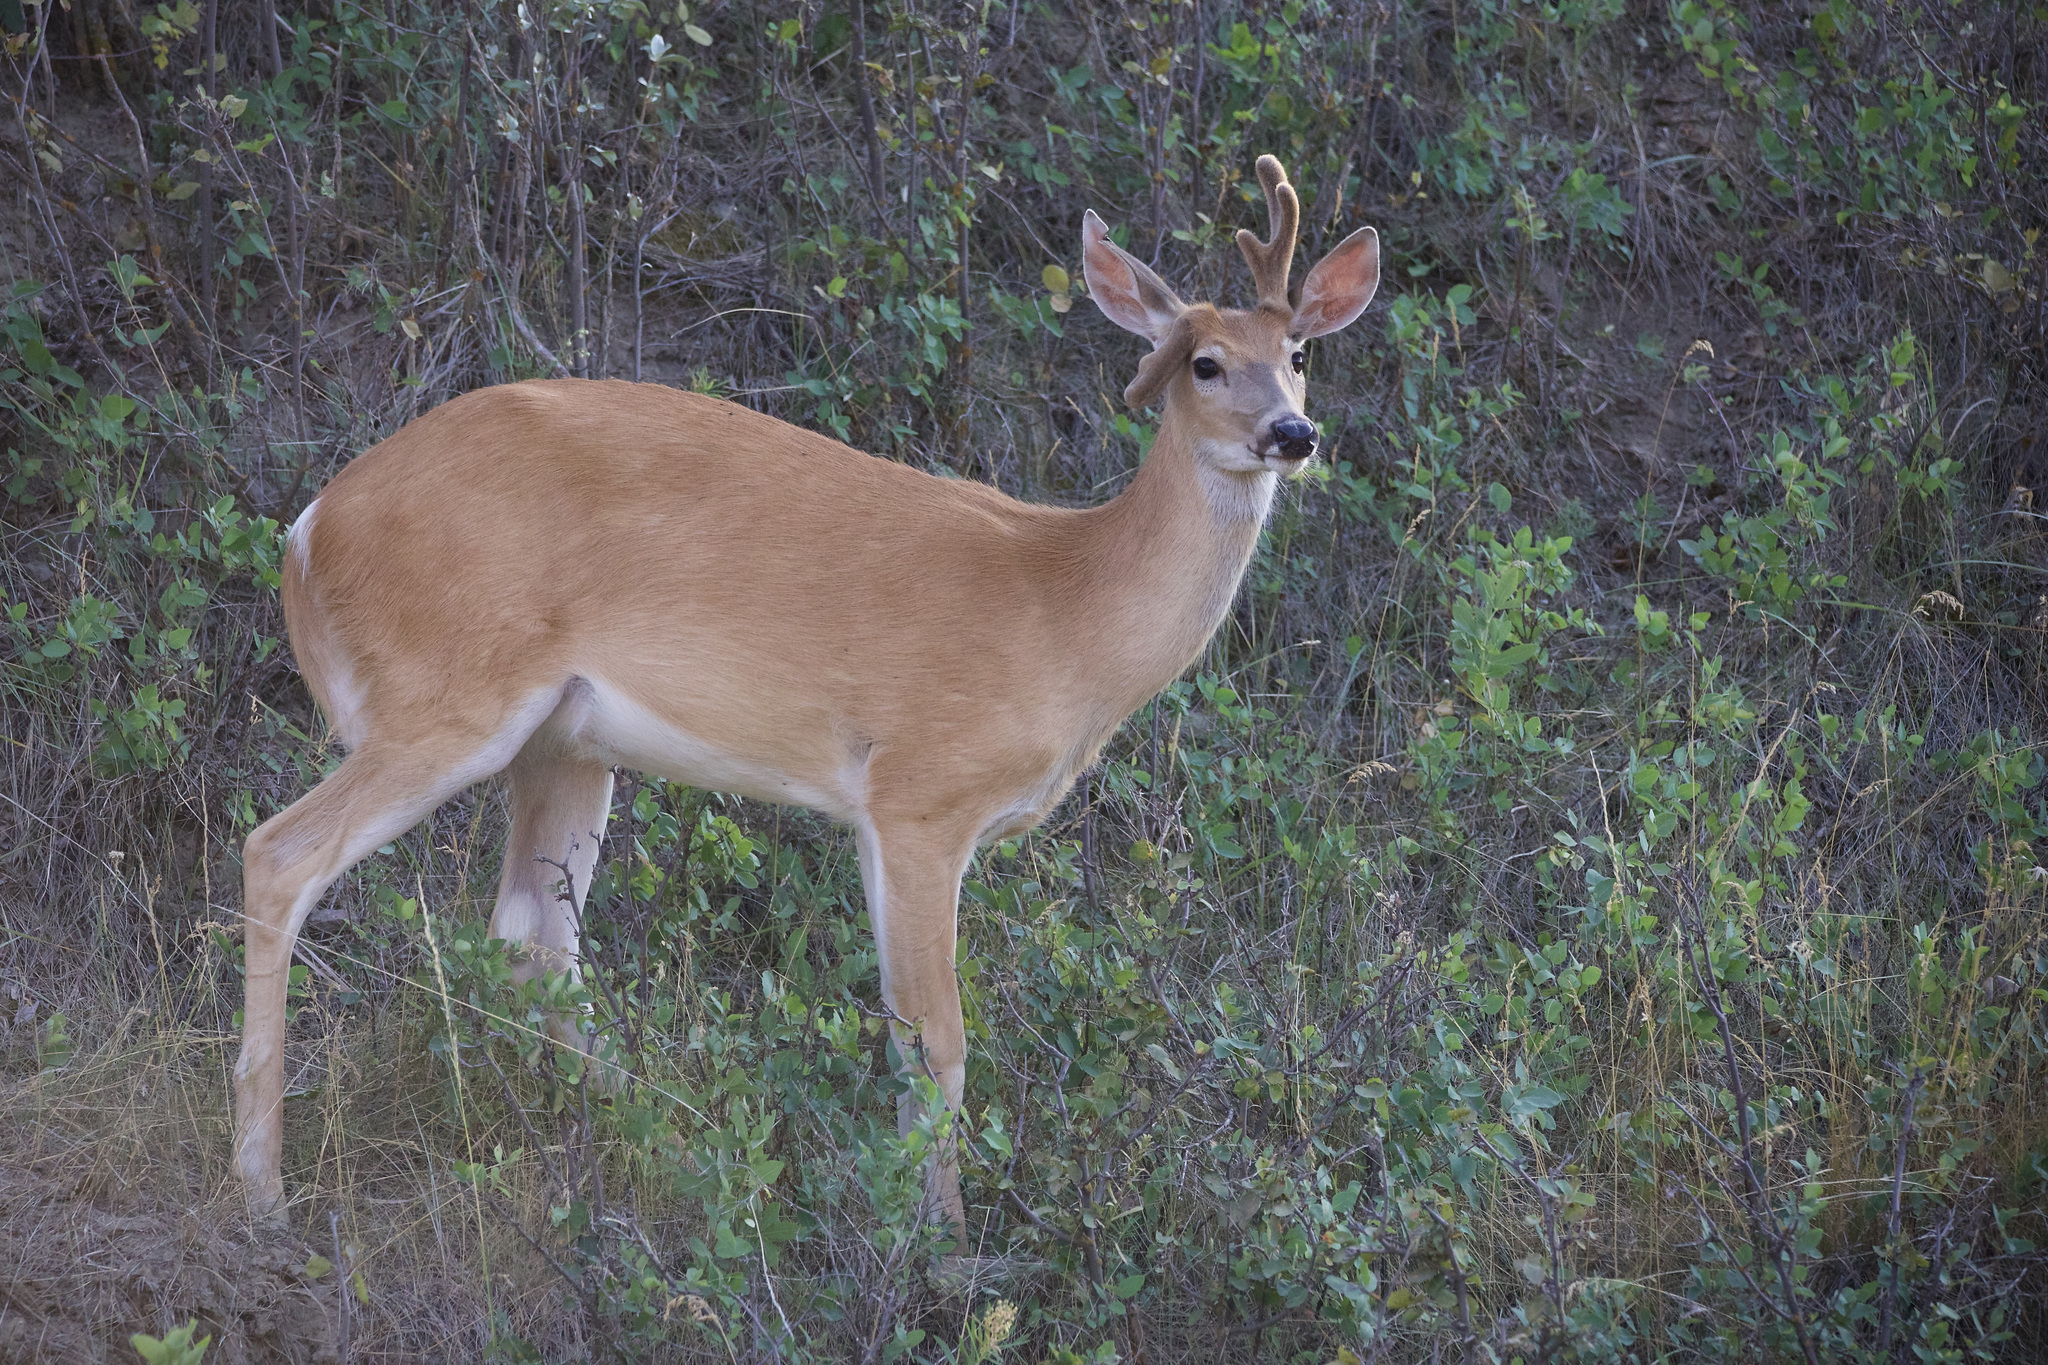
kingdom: Animalia
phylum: Chordata
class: Mammalia
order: Artiodactyla
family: Cervidae
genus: Odocoileus
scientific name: Odocoileus virginianus
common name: White-tailed deer
